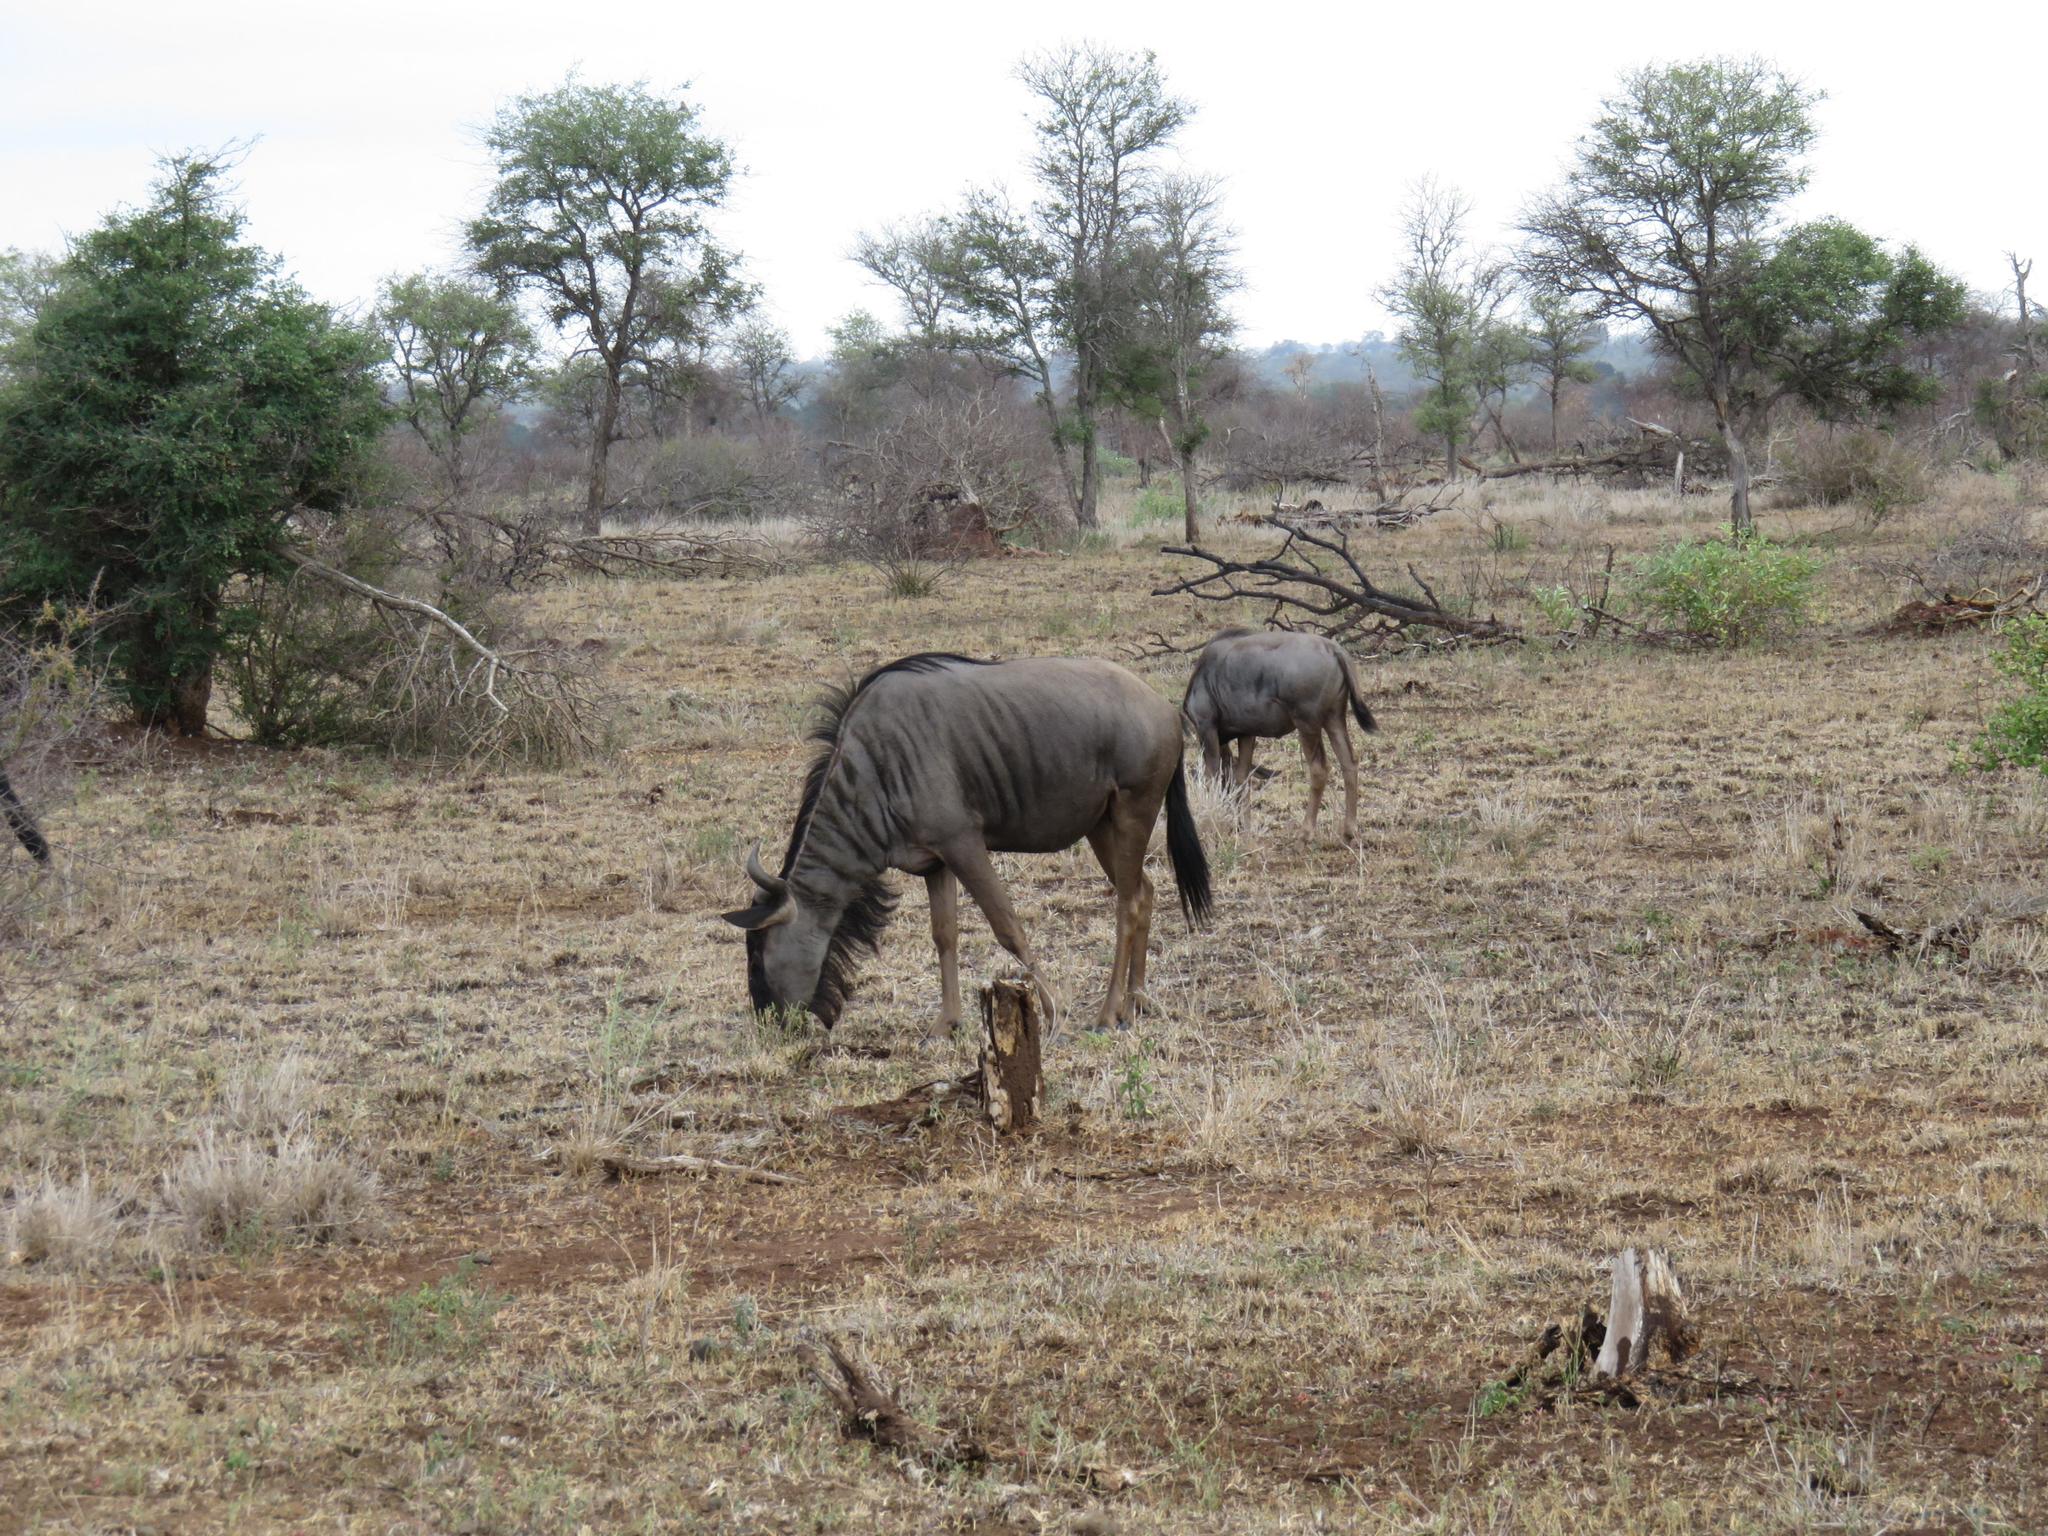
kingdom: Animalia
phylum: Chordata
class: Mammalia
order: Artiodactyla
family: Bovidae
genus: Connochaetes
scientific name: Connochaetes taurinus
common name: Blue wildebeest
